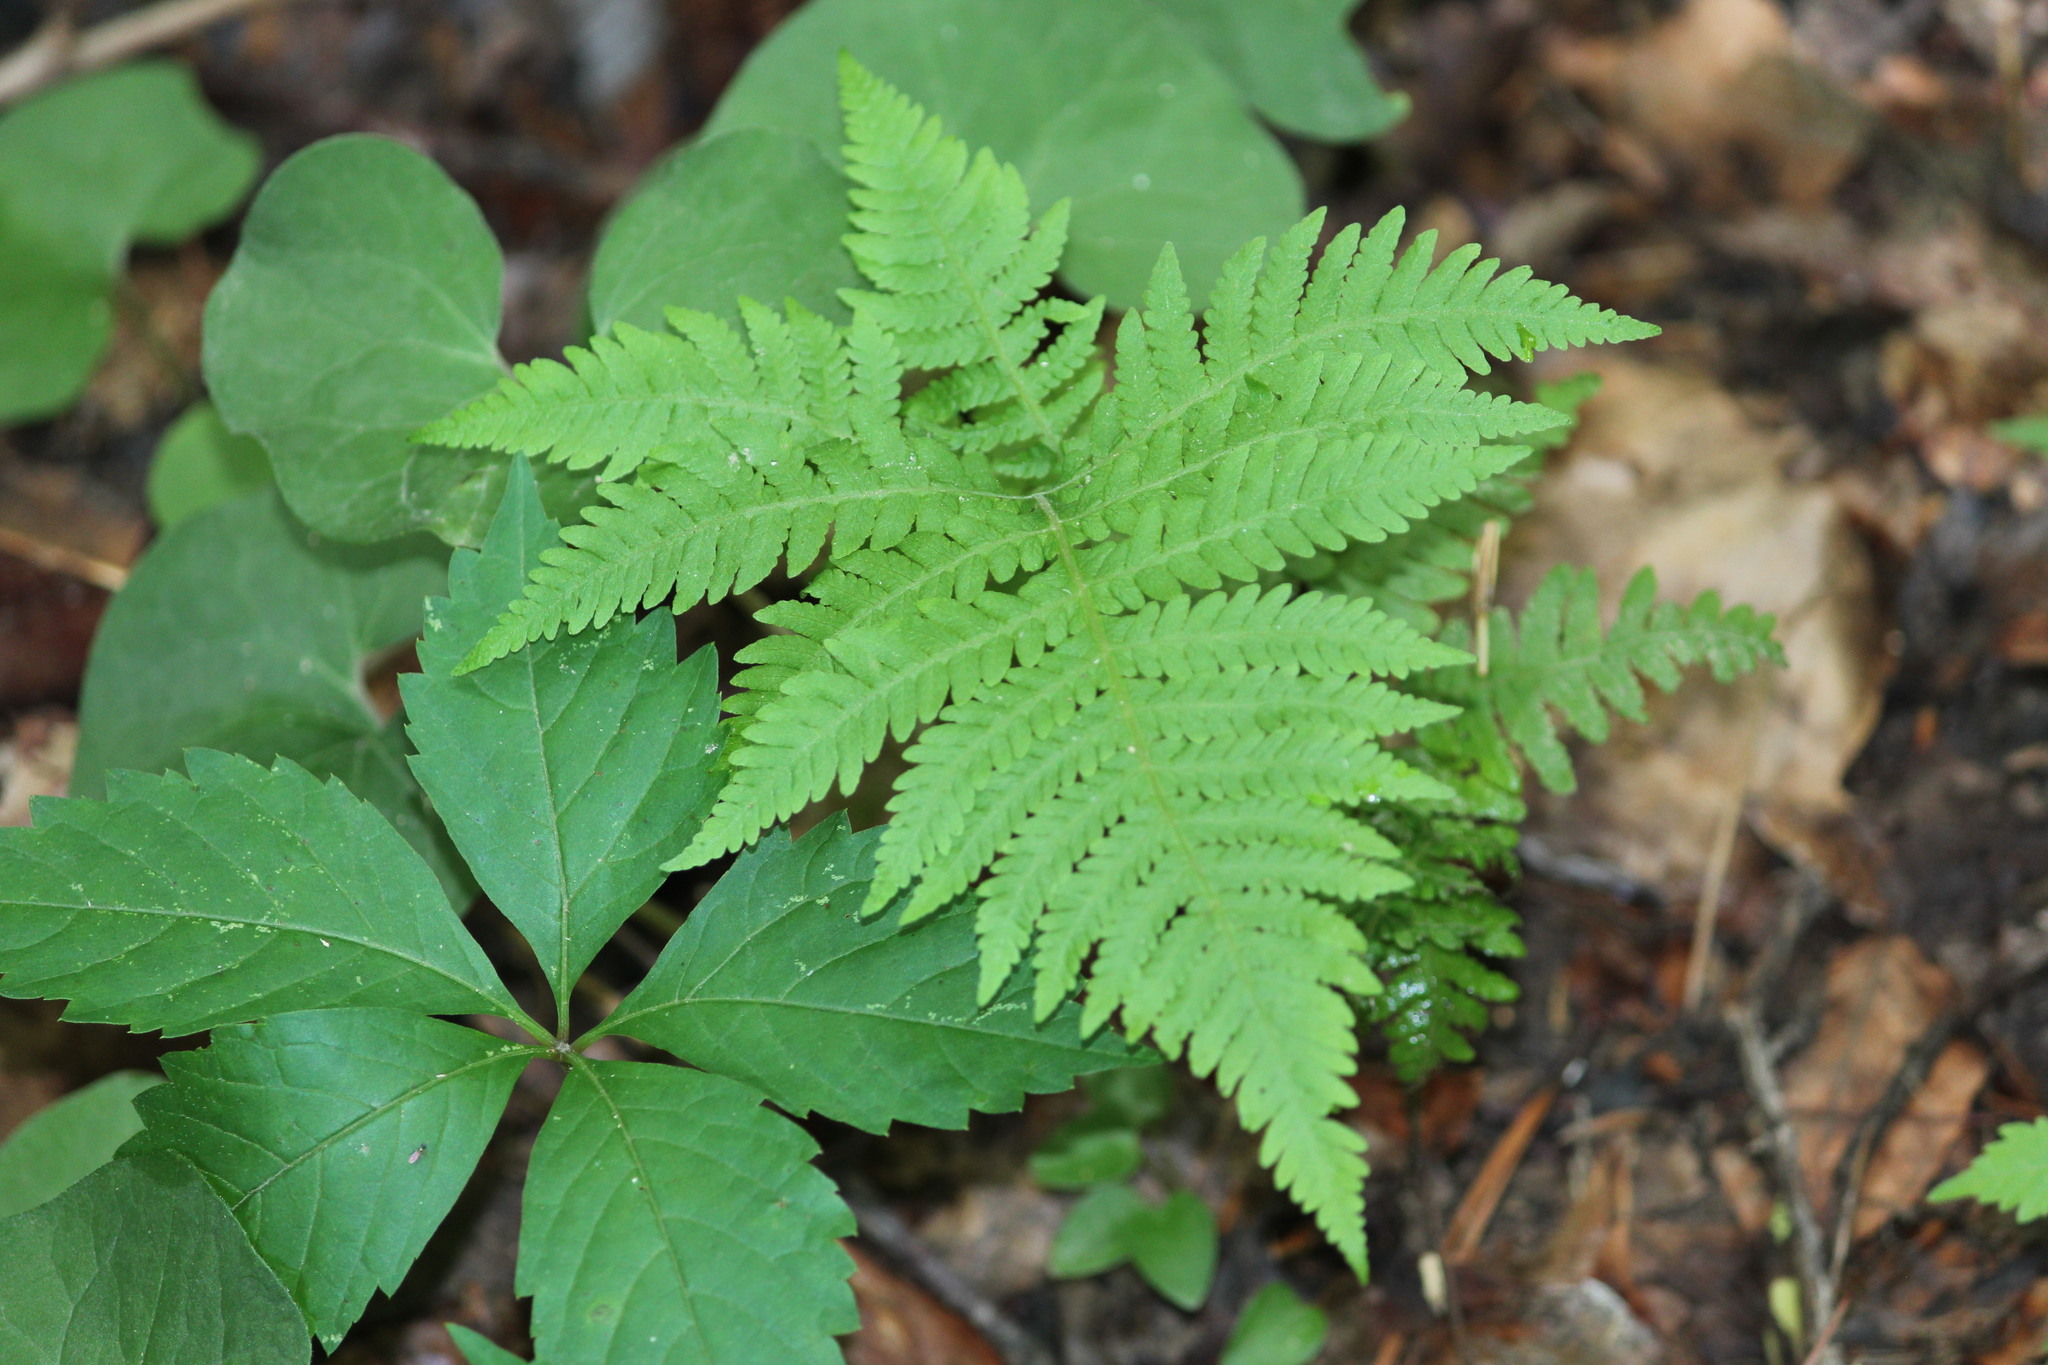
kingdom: Plantae
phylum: Tracheophyta
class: Polypodiopsida
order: Polypodiales
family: Thelypteridaceae
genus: Phegopteris
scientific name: Phegopteris hexagonoptera
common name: Broad beech fern
